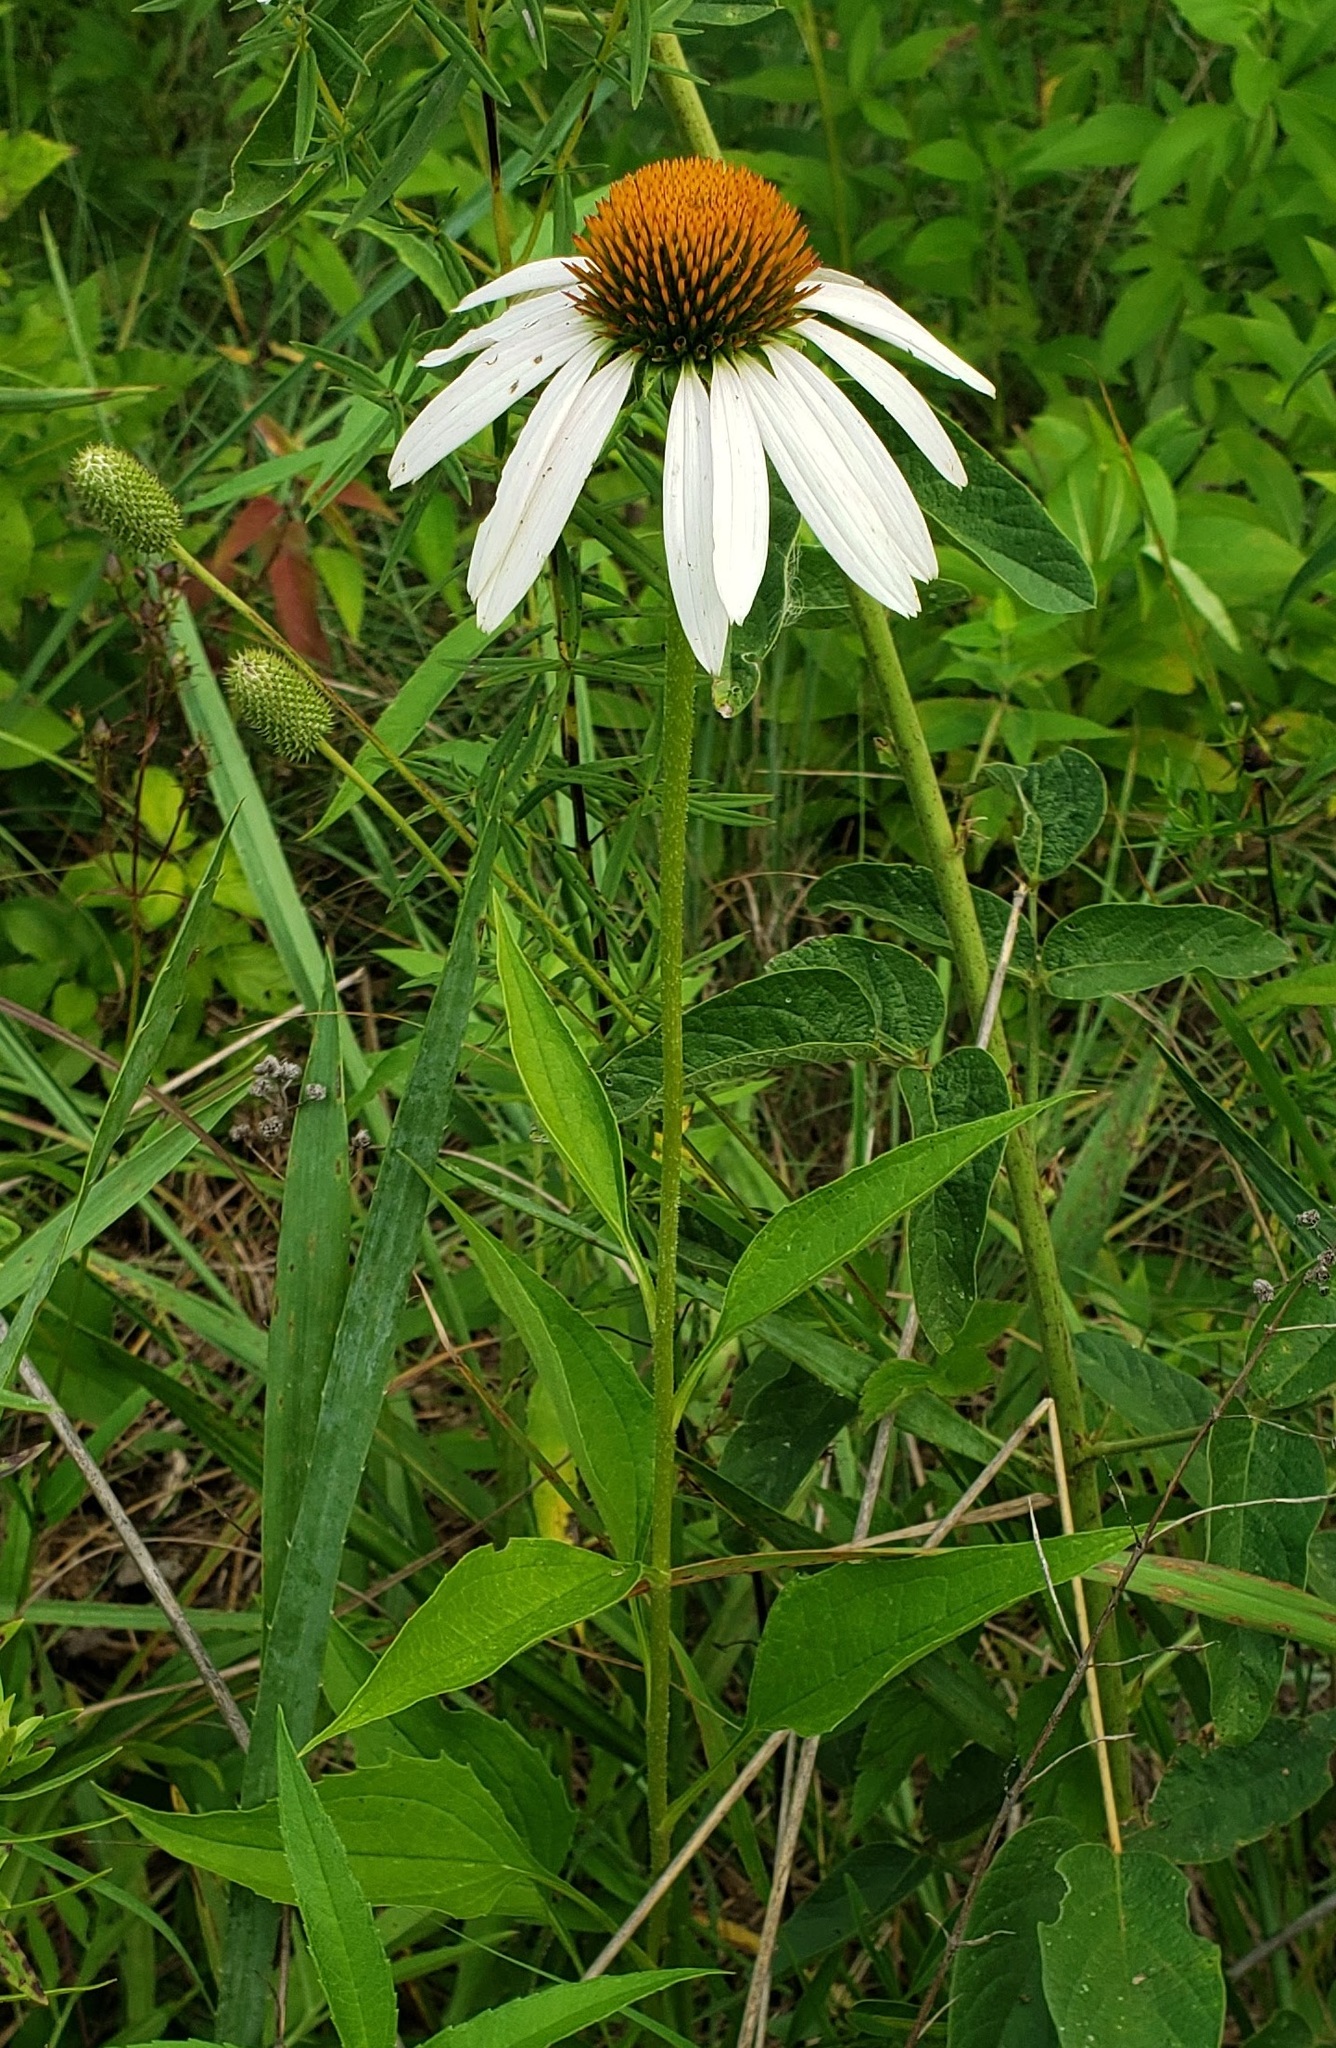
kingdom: Plantae
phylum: Tracheophyta
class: Magnoliopsida
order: Asterales
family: Asteraceae
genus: Echinacea
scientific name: Echinacea purpurea
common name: Broad-leaved purple coneflower
